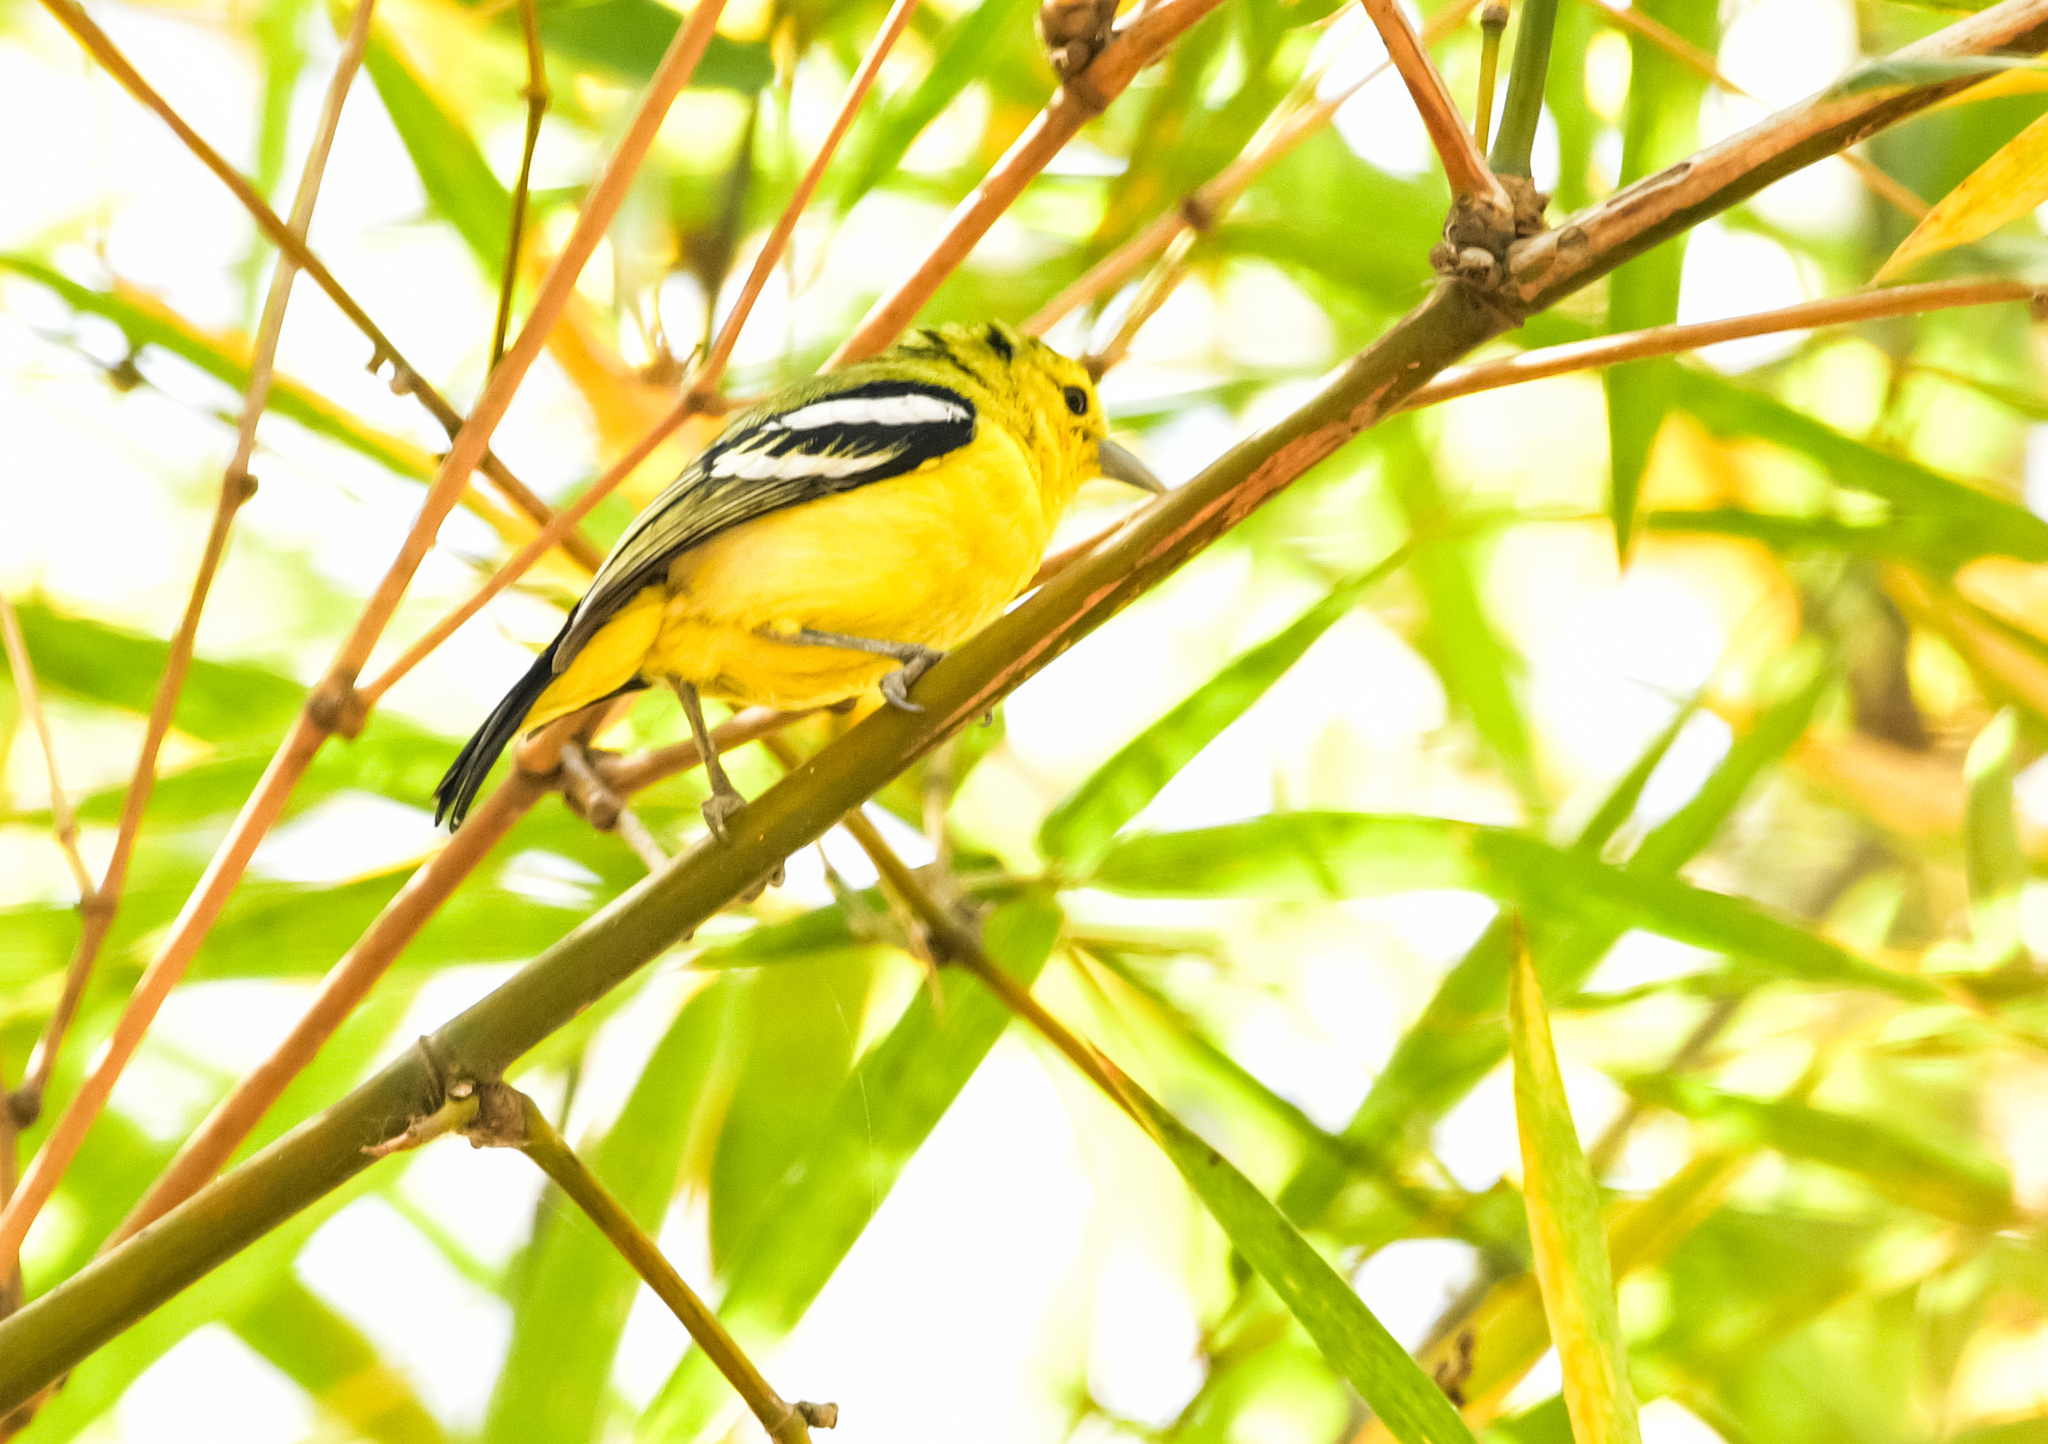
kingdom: Animalia
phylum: Chordata
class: Aves
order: Passeriformes
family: Aegithinidae
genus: Aegithina
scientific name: Aegithina tiphia
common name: Common iora
